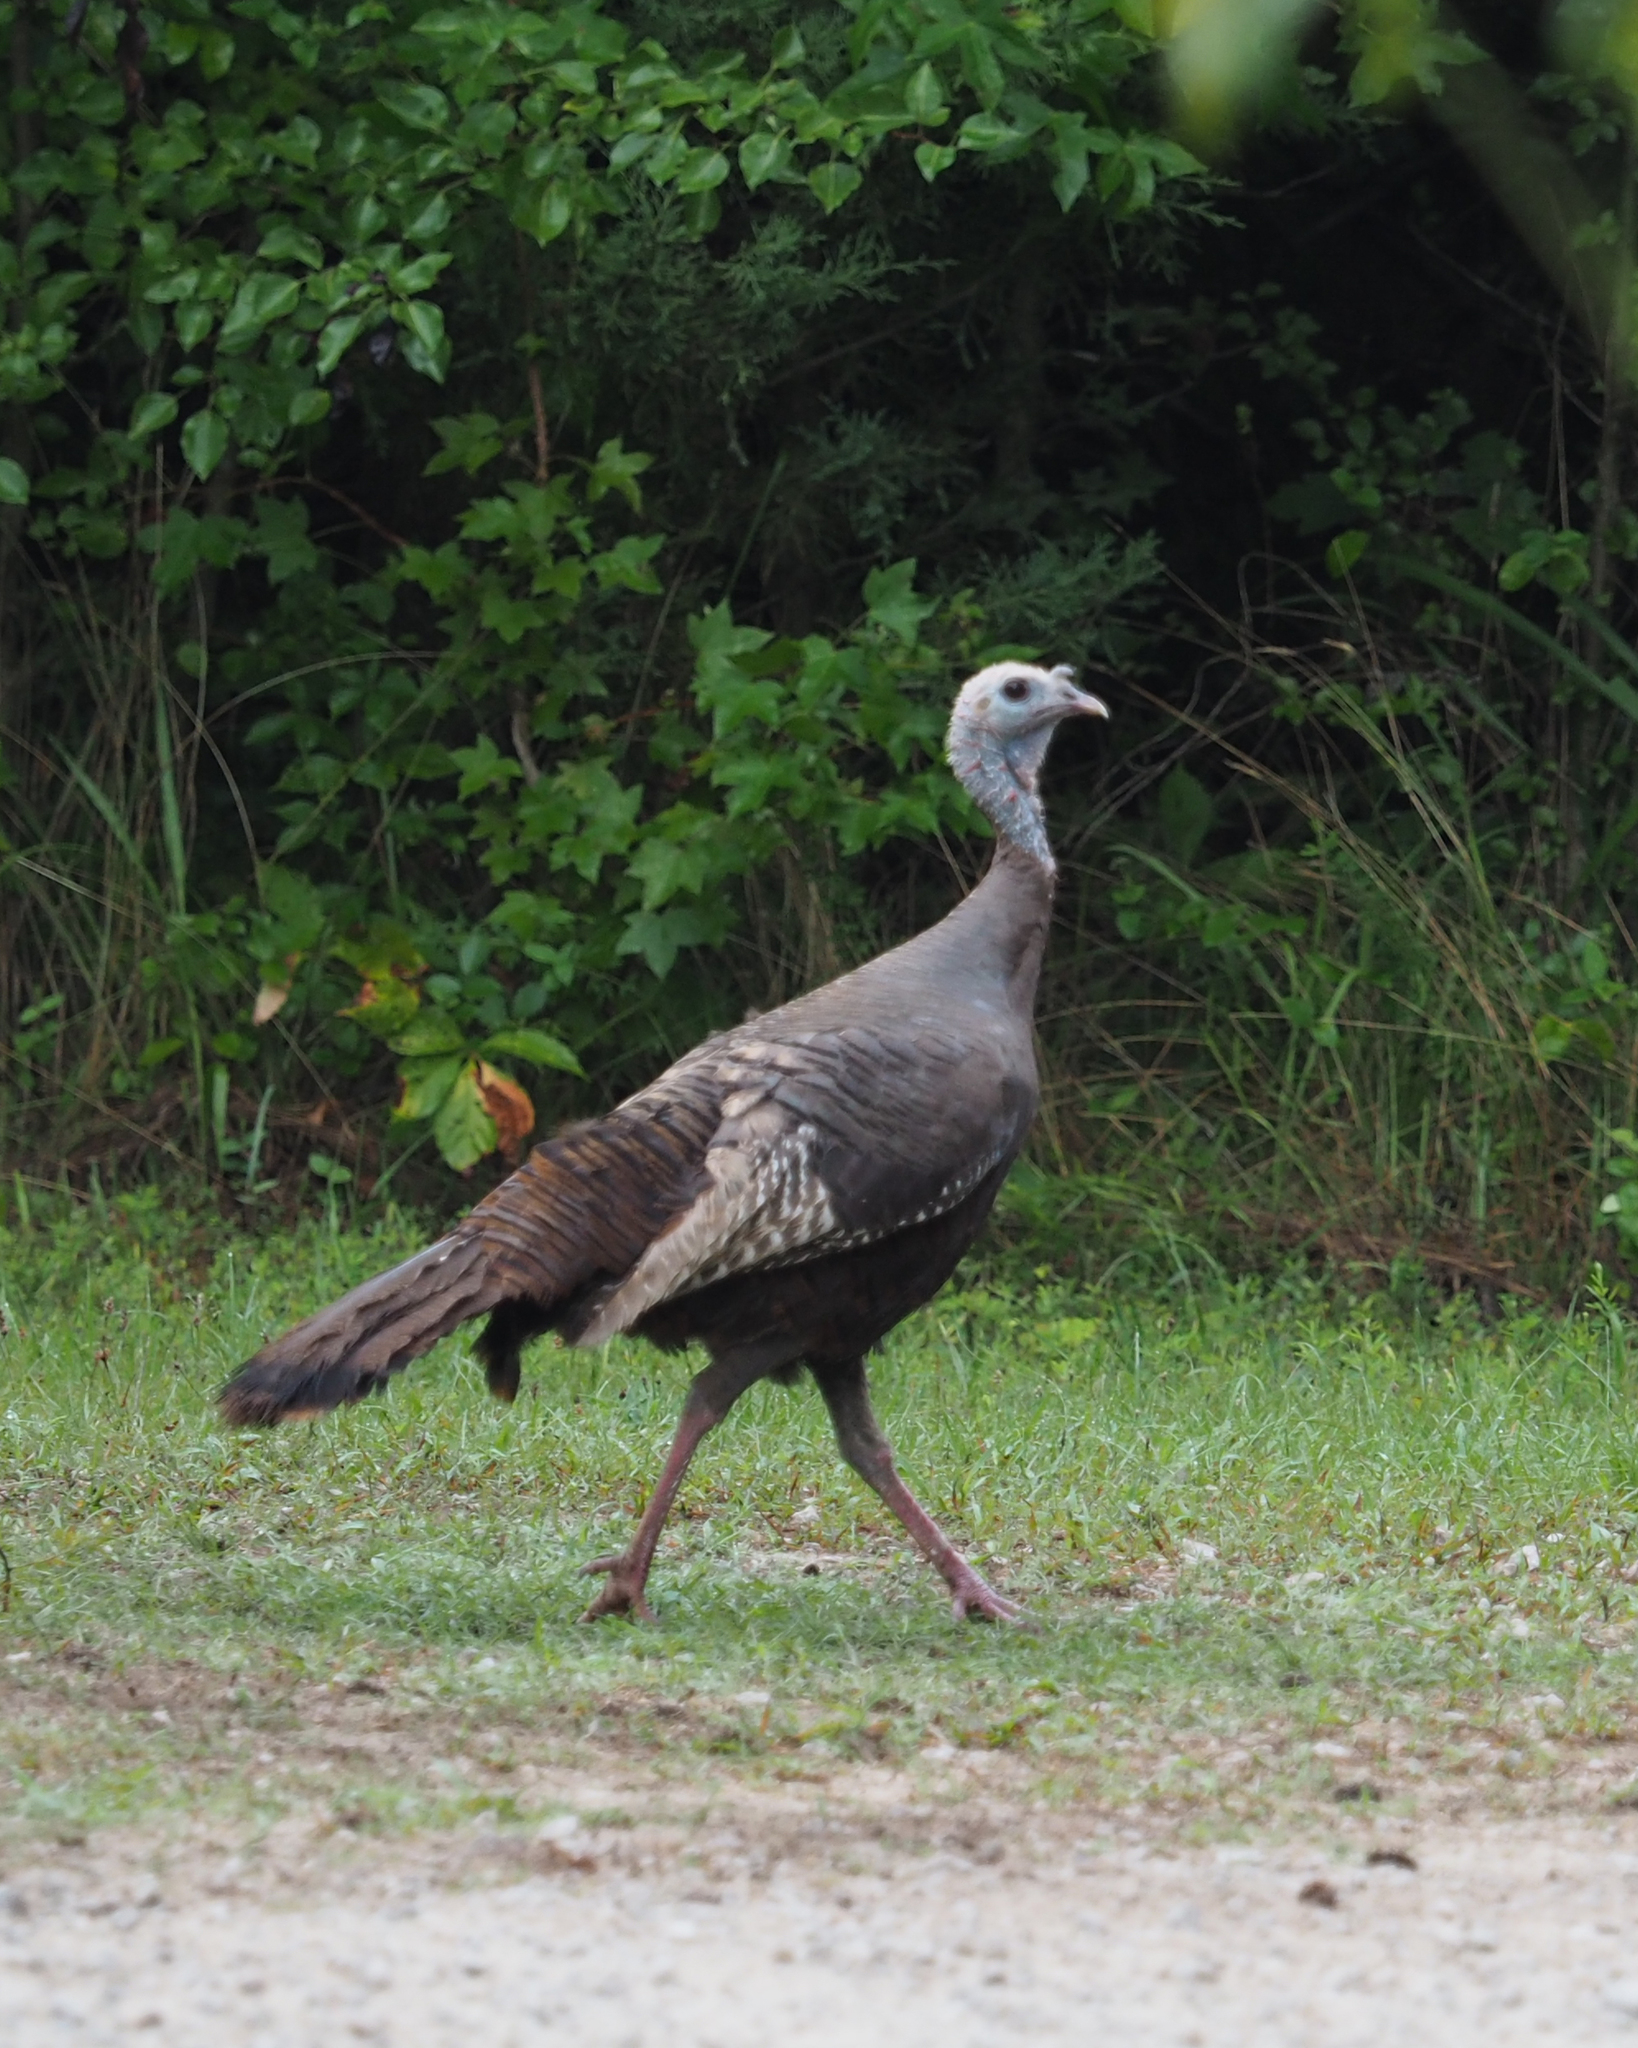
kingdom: Animalia
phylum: Chordata
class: Aves
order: Galliformes
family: Phasianidae
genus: Meleagris
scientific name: Meleagris gallopavo
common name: Wild turkey
